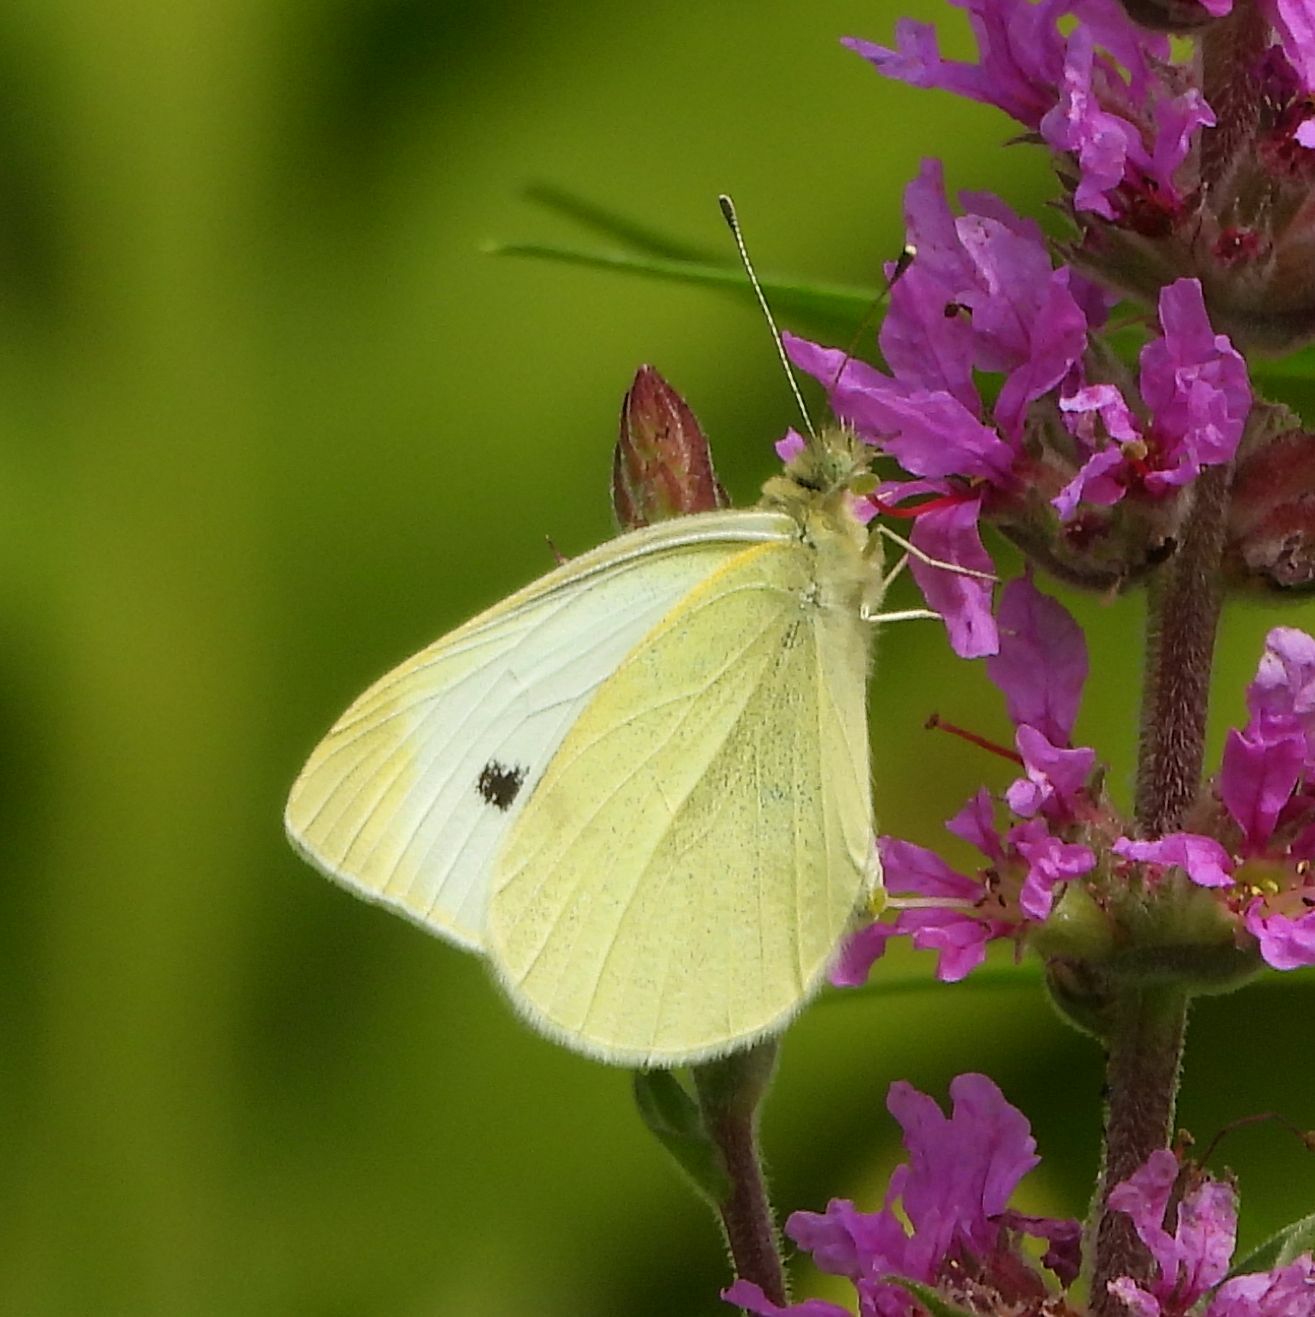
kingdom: Animalia
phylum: Arthropoda
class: Insecta
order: Lepidoptera
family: Pieridae
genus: Pieris
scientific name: Pieris rapae
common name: Small white
